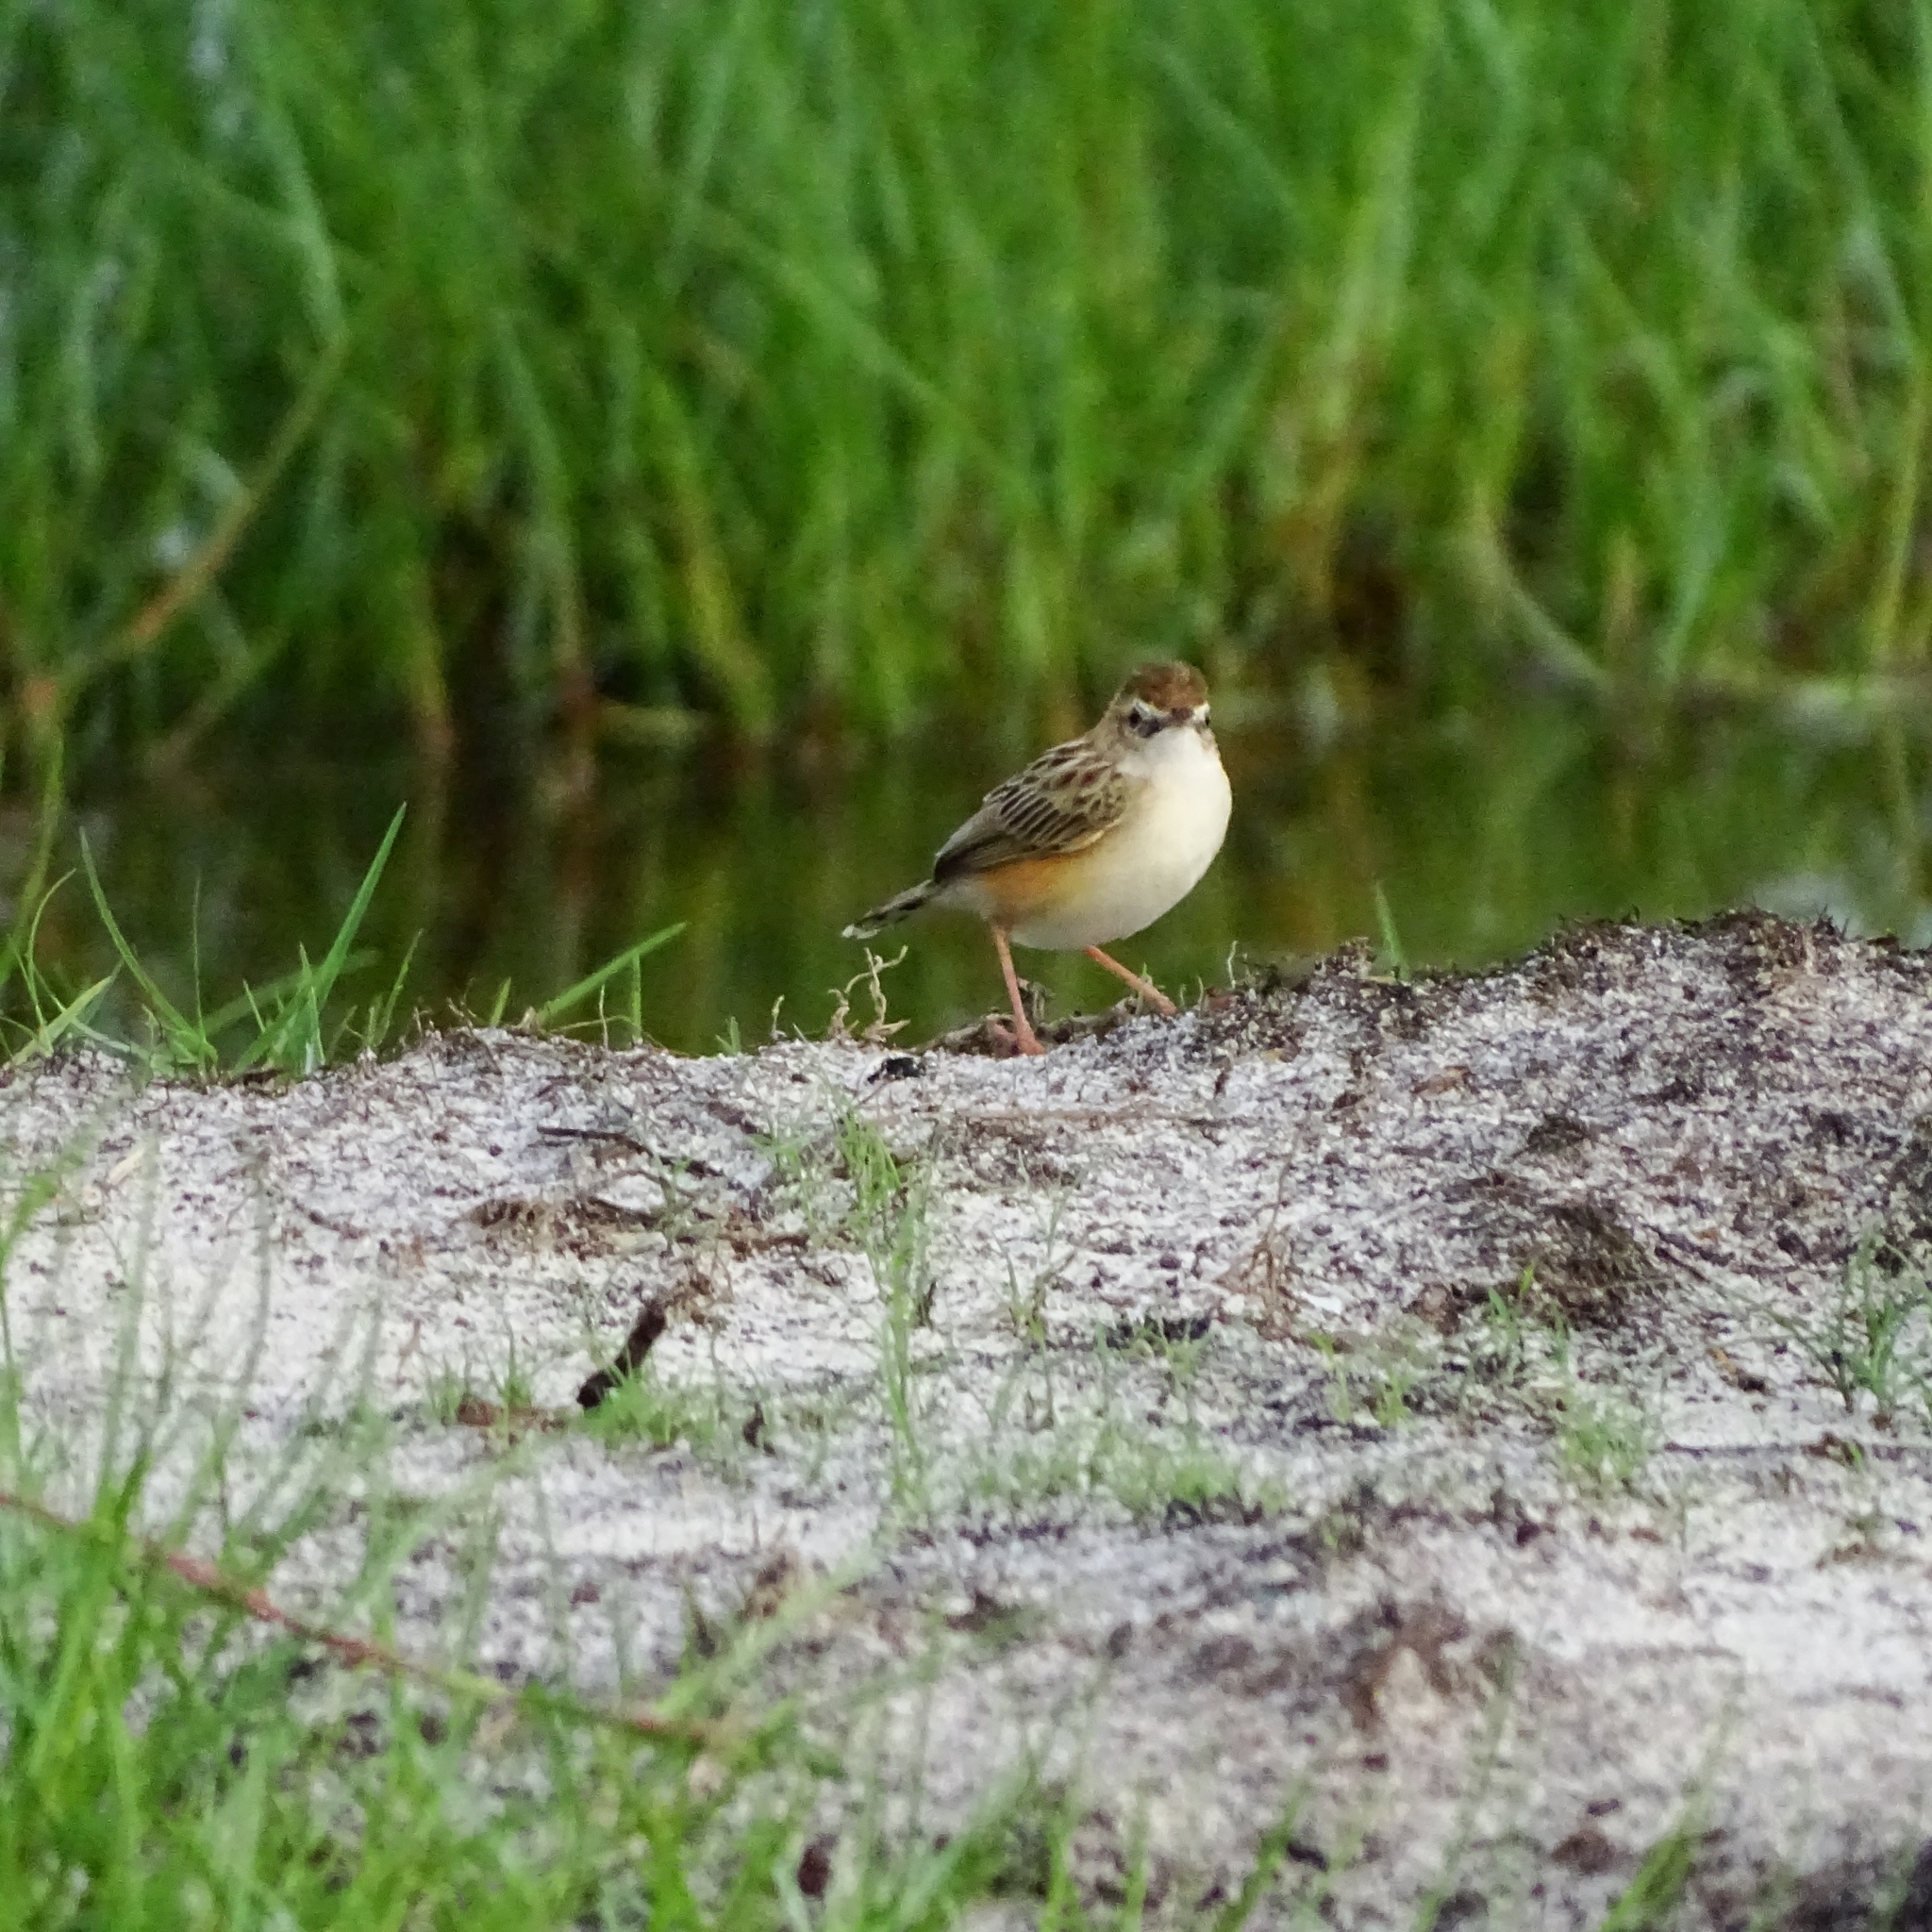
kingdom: Animalia
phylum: Chordata
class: Aves
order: Passeriformes
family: Cisticolidae
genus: Cisticola
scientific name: Cisticola juncidis
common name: Zitting cisticola
